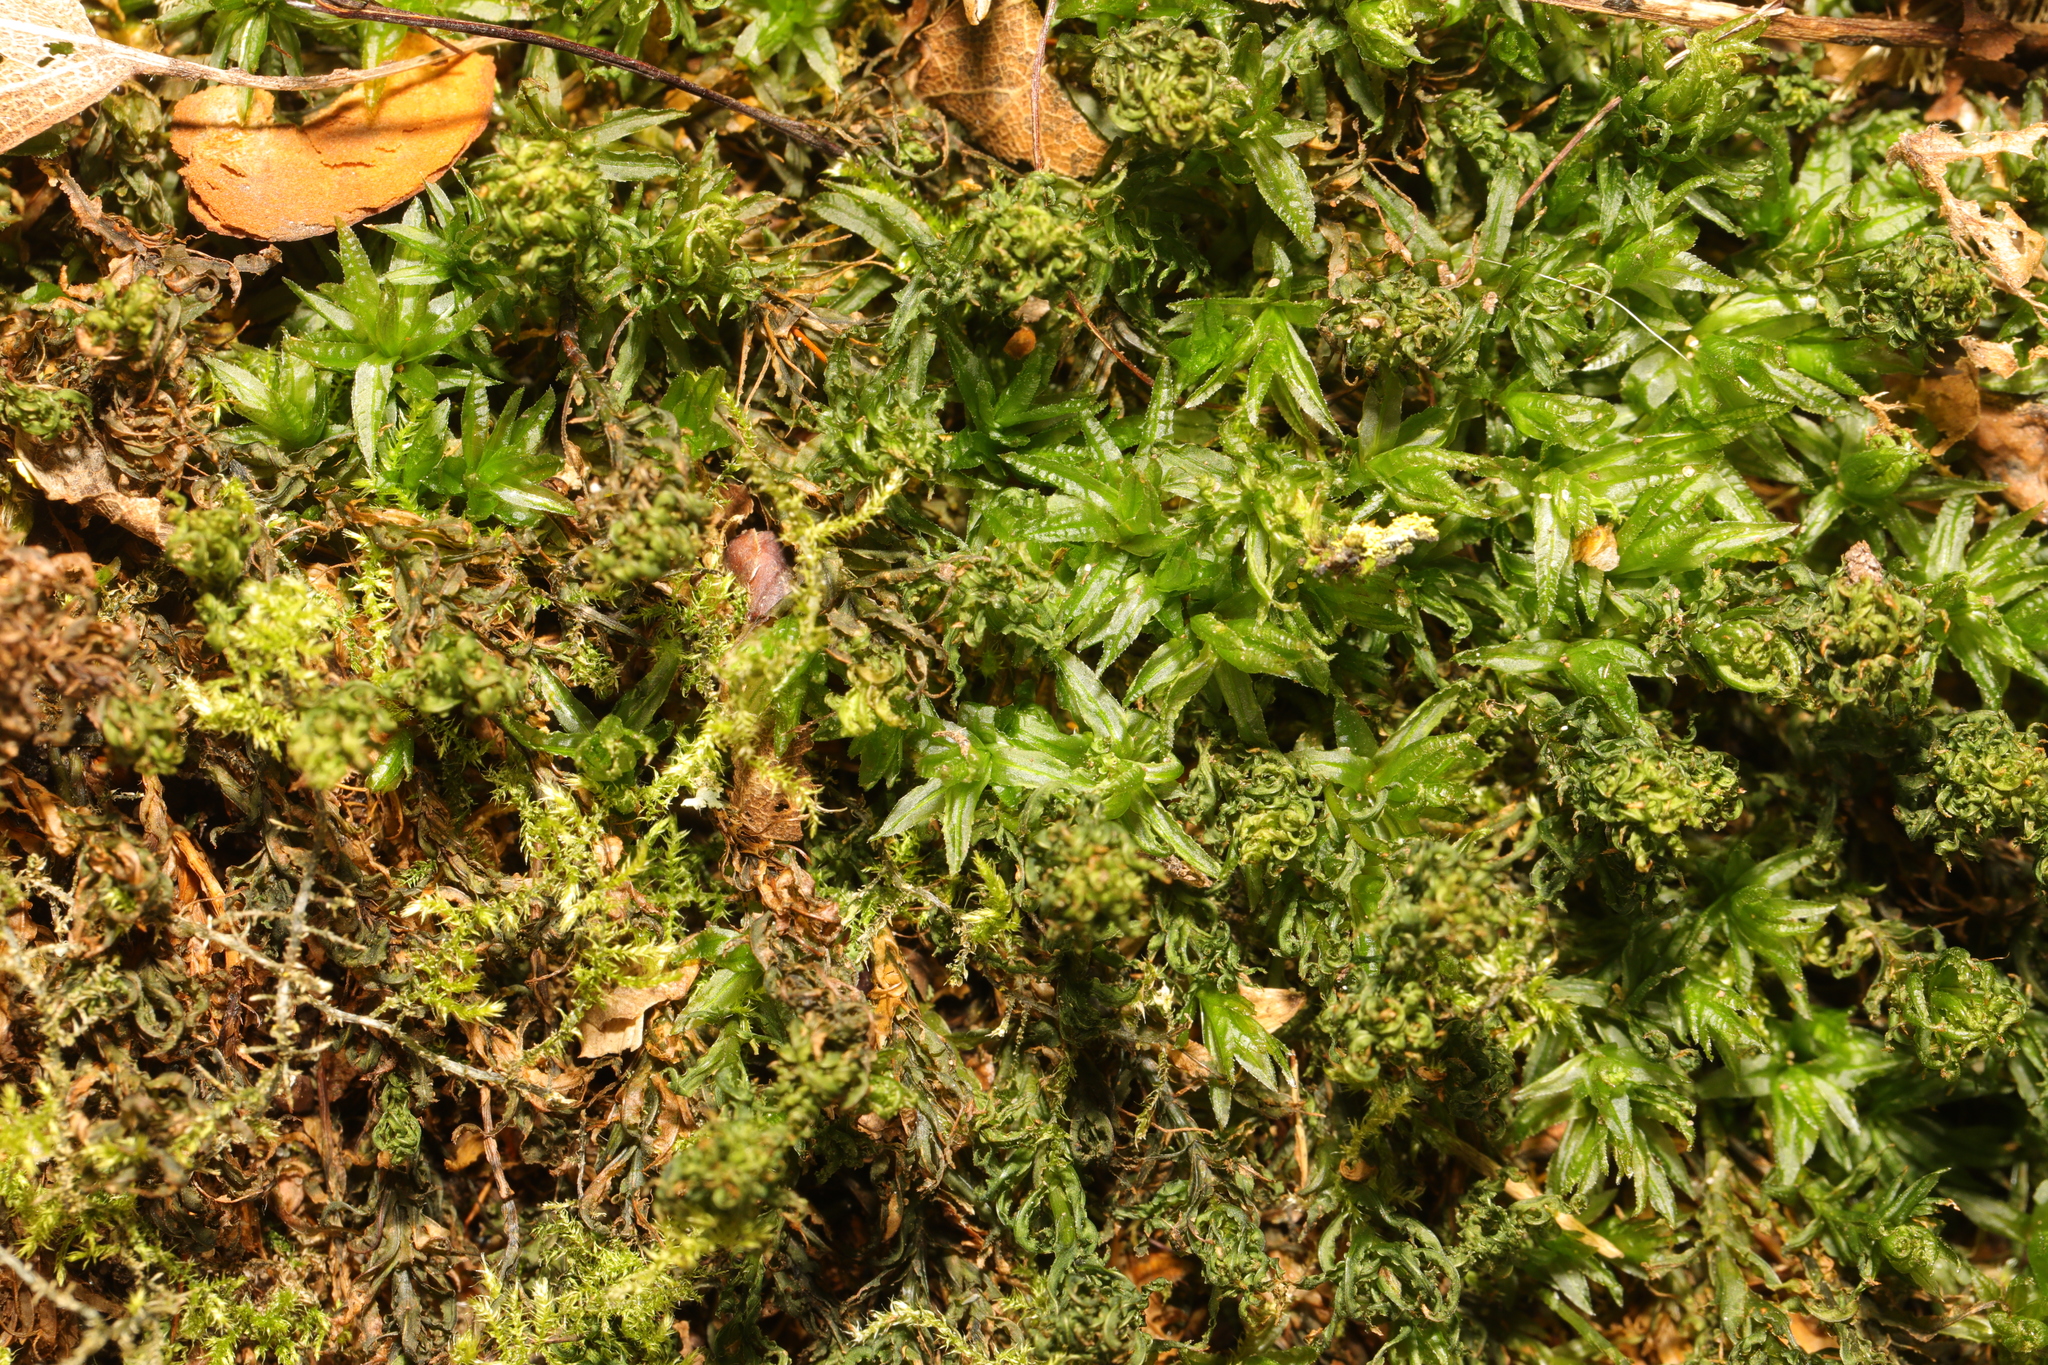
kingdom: Plantae
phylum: Bryophyta
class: Polytrichopsida
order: Polytrichales
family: Polytrichaceae
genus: Atrichum
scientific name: Atrichum undulatum
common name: Common smoothcap
